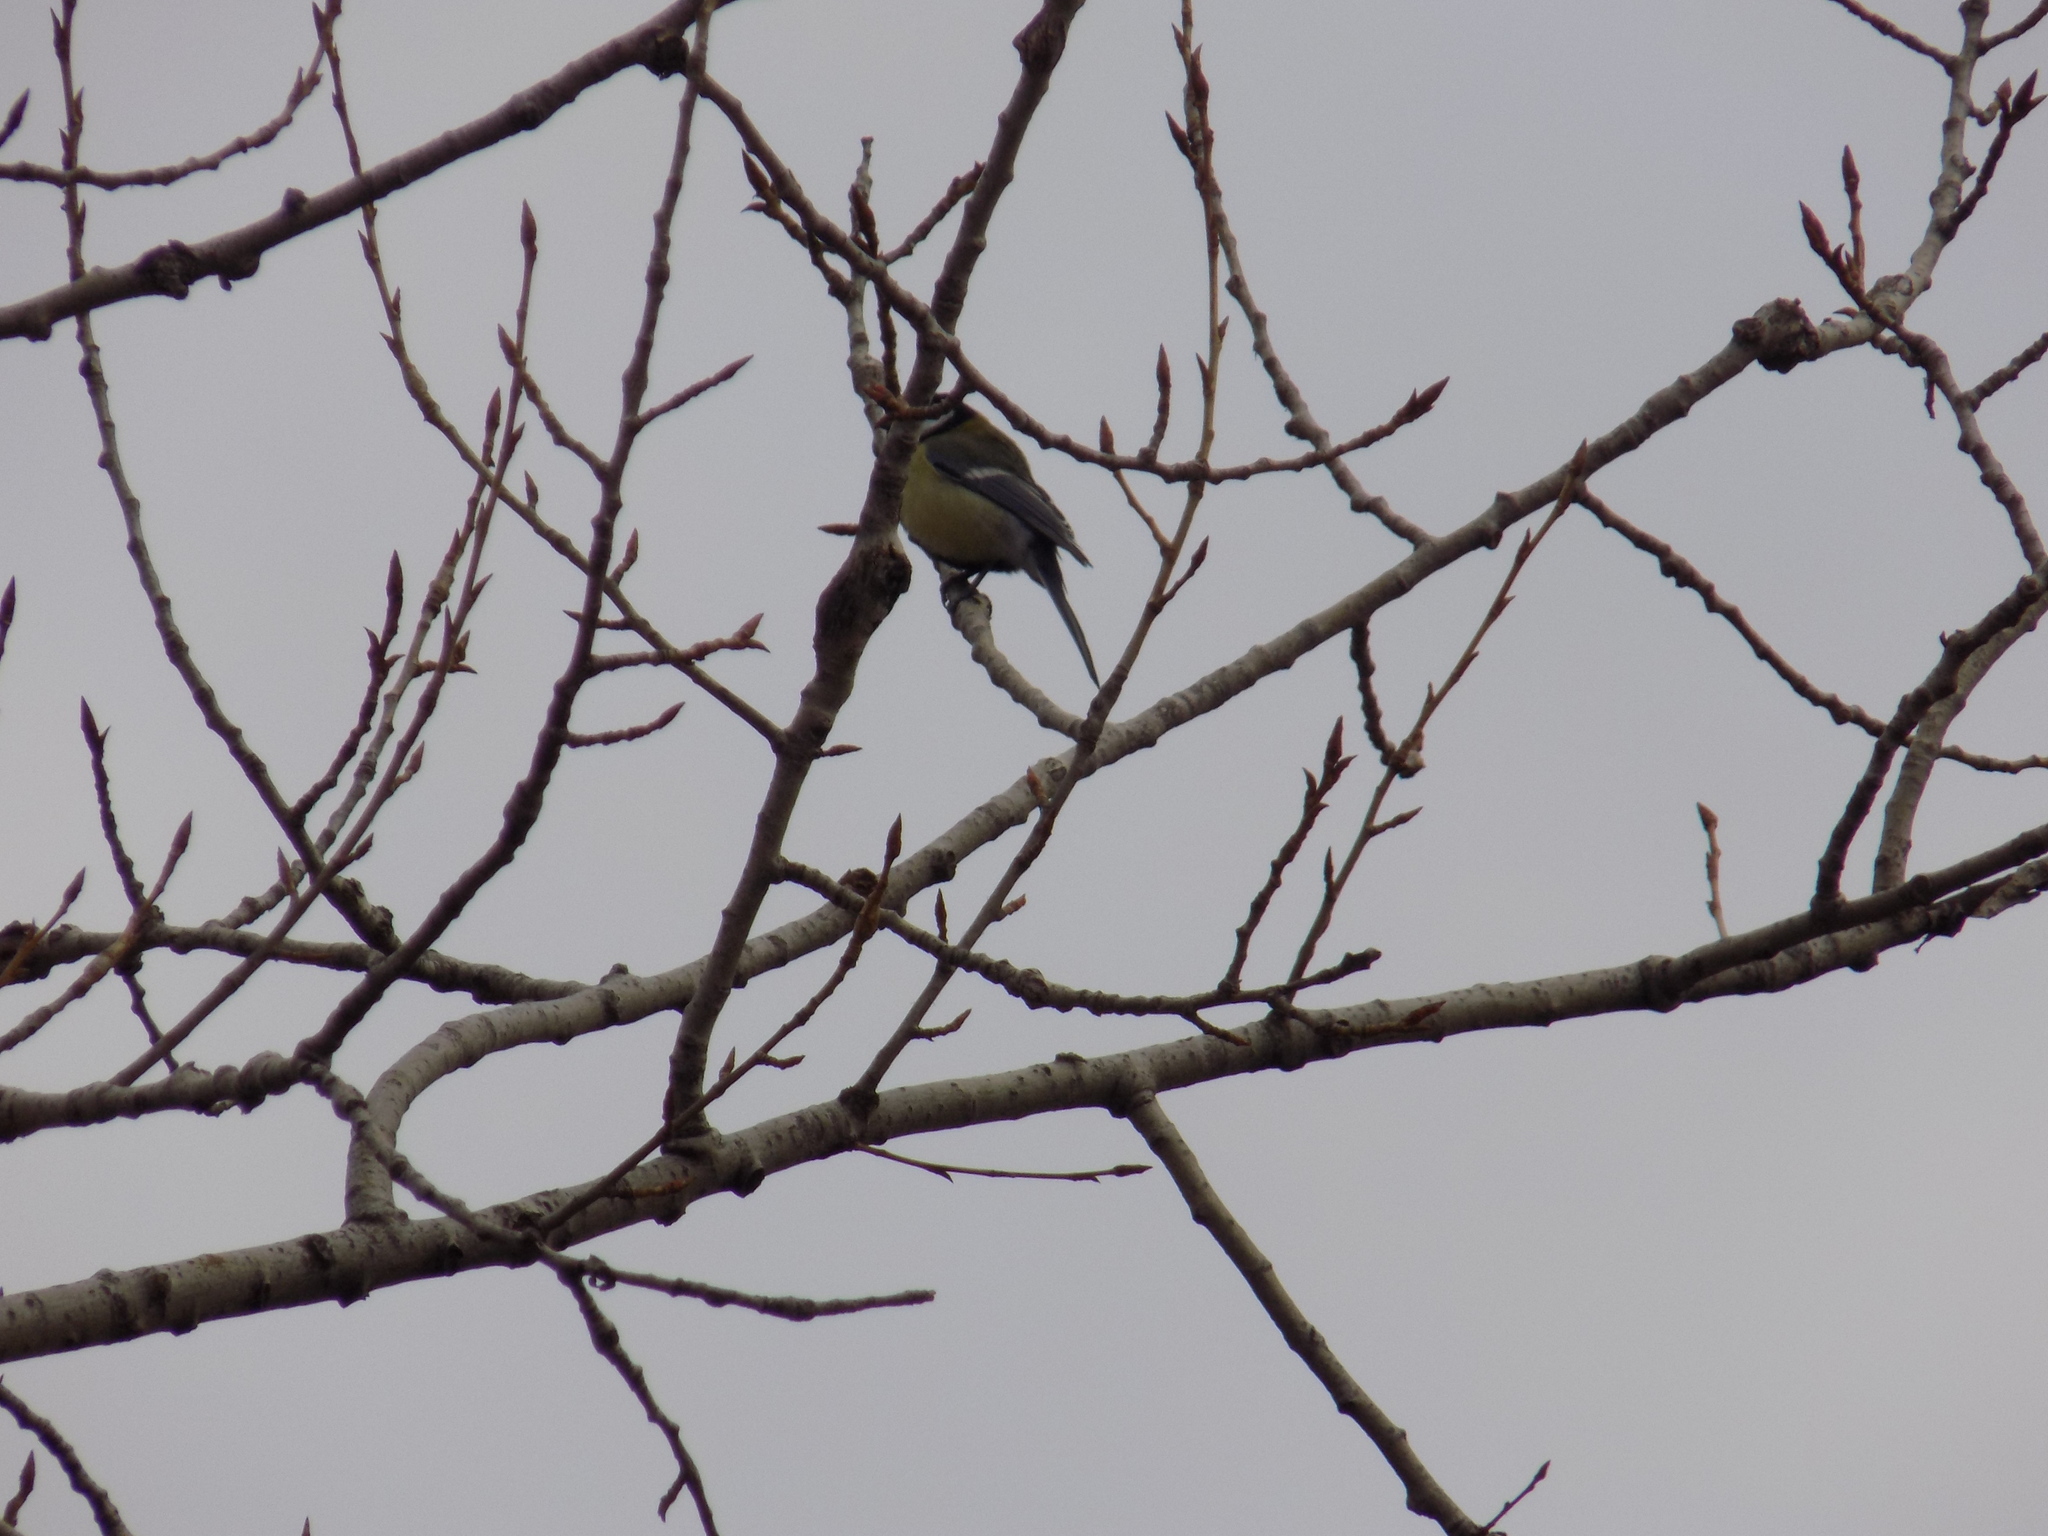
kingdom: Animalia
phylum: Chordata
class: Aves
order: Passeriformes
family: Paridae
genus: Parus
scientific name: Parus major
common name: Great tit
